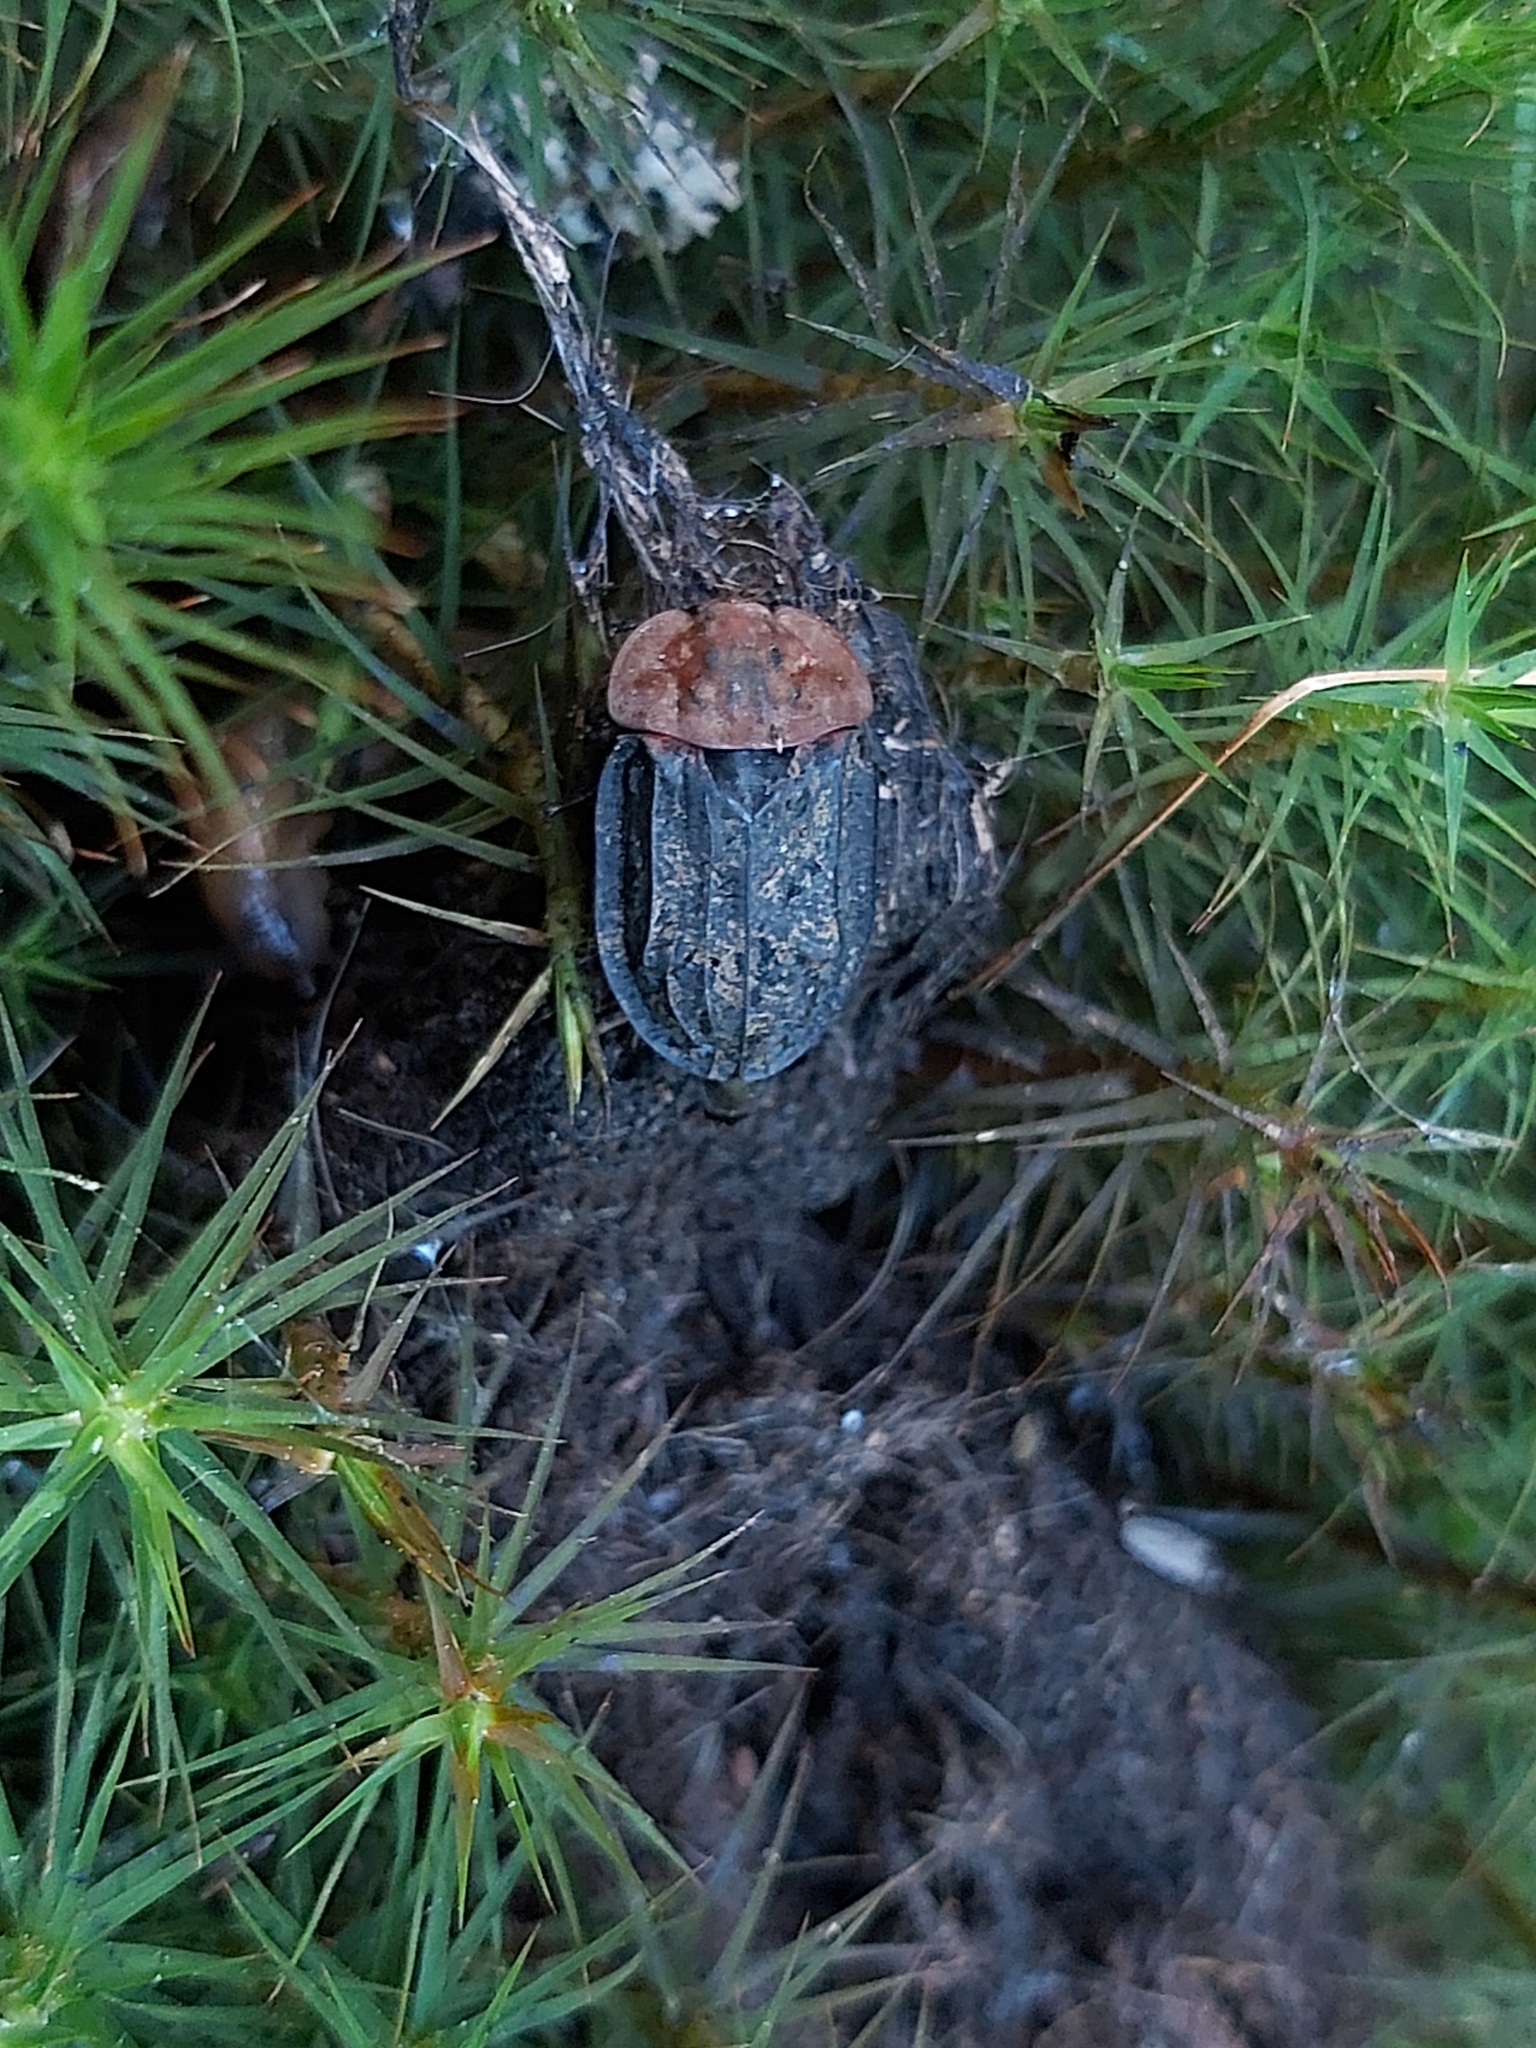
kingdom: Animalia
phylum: Arthropoda
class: Insecta
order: Coleoptera
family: Staphylinidae
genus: Oiceoptoma
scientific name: Oiceoptoma thoracicum
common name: Red-breasted carrion beetle
